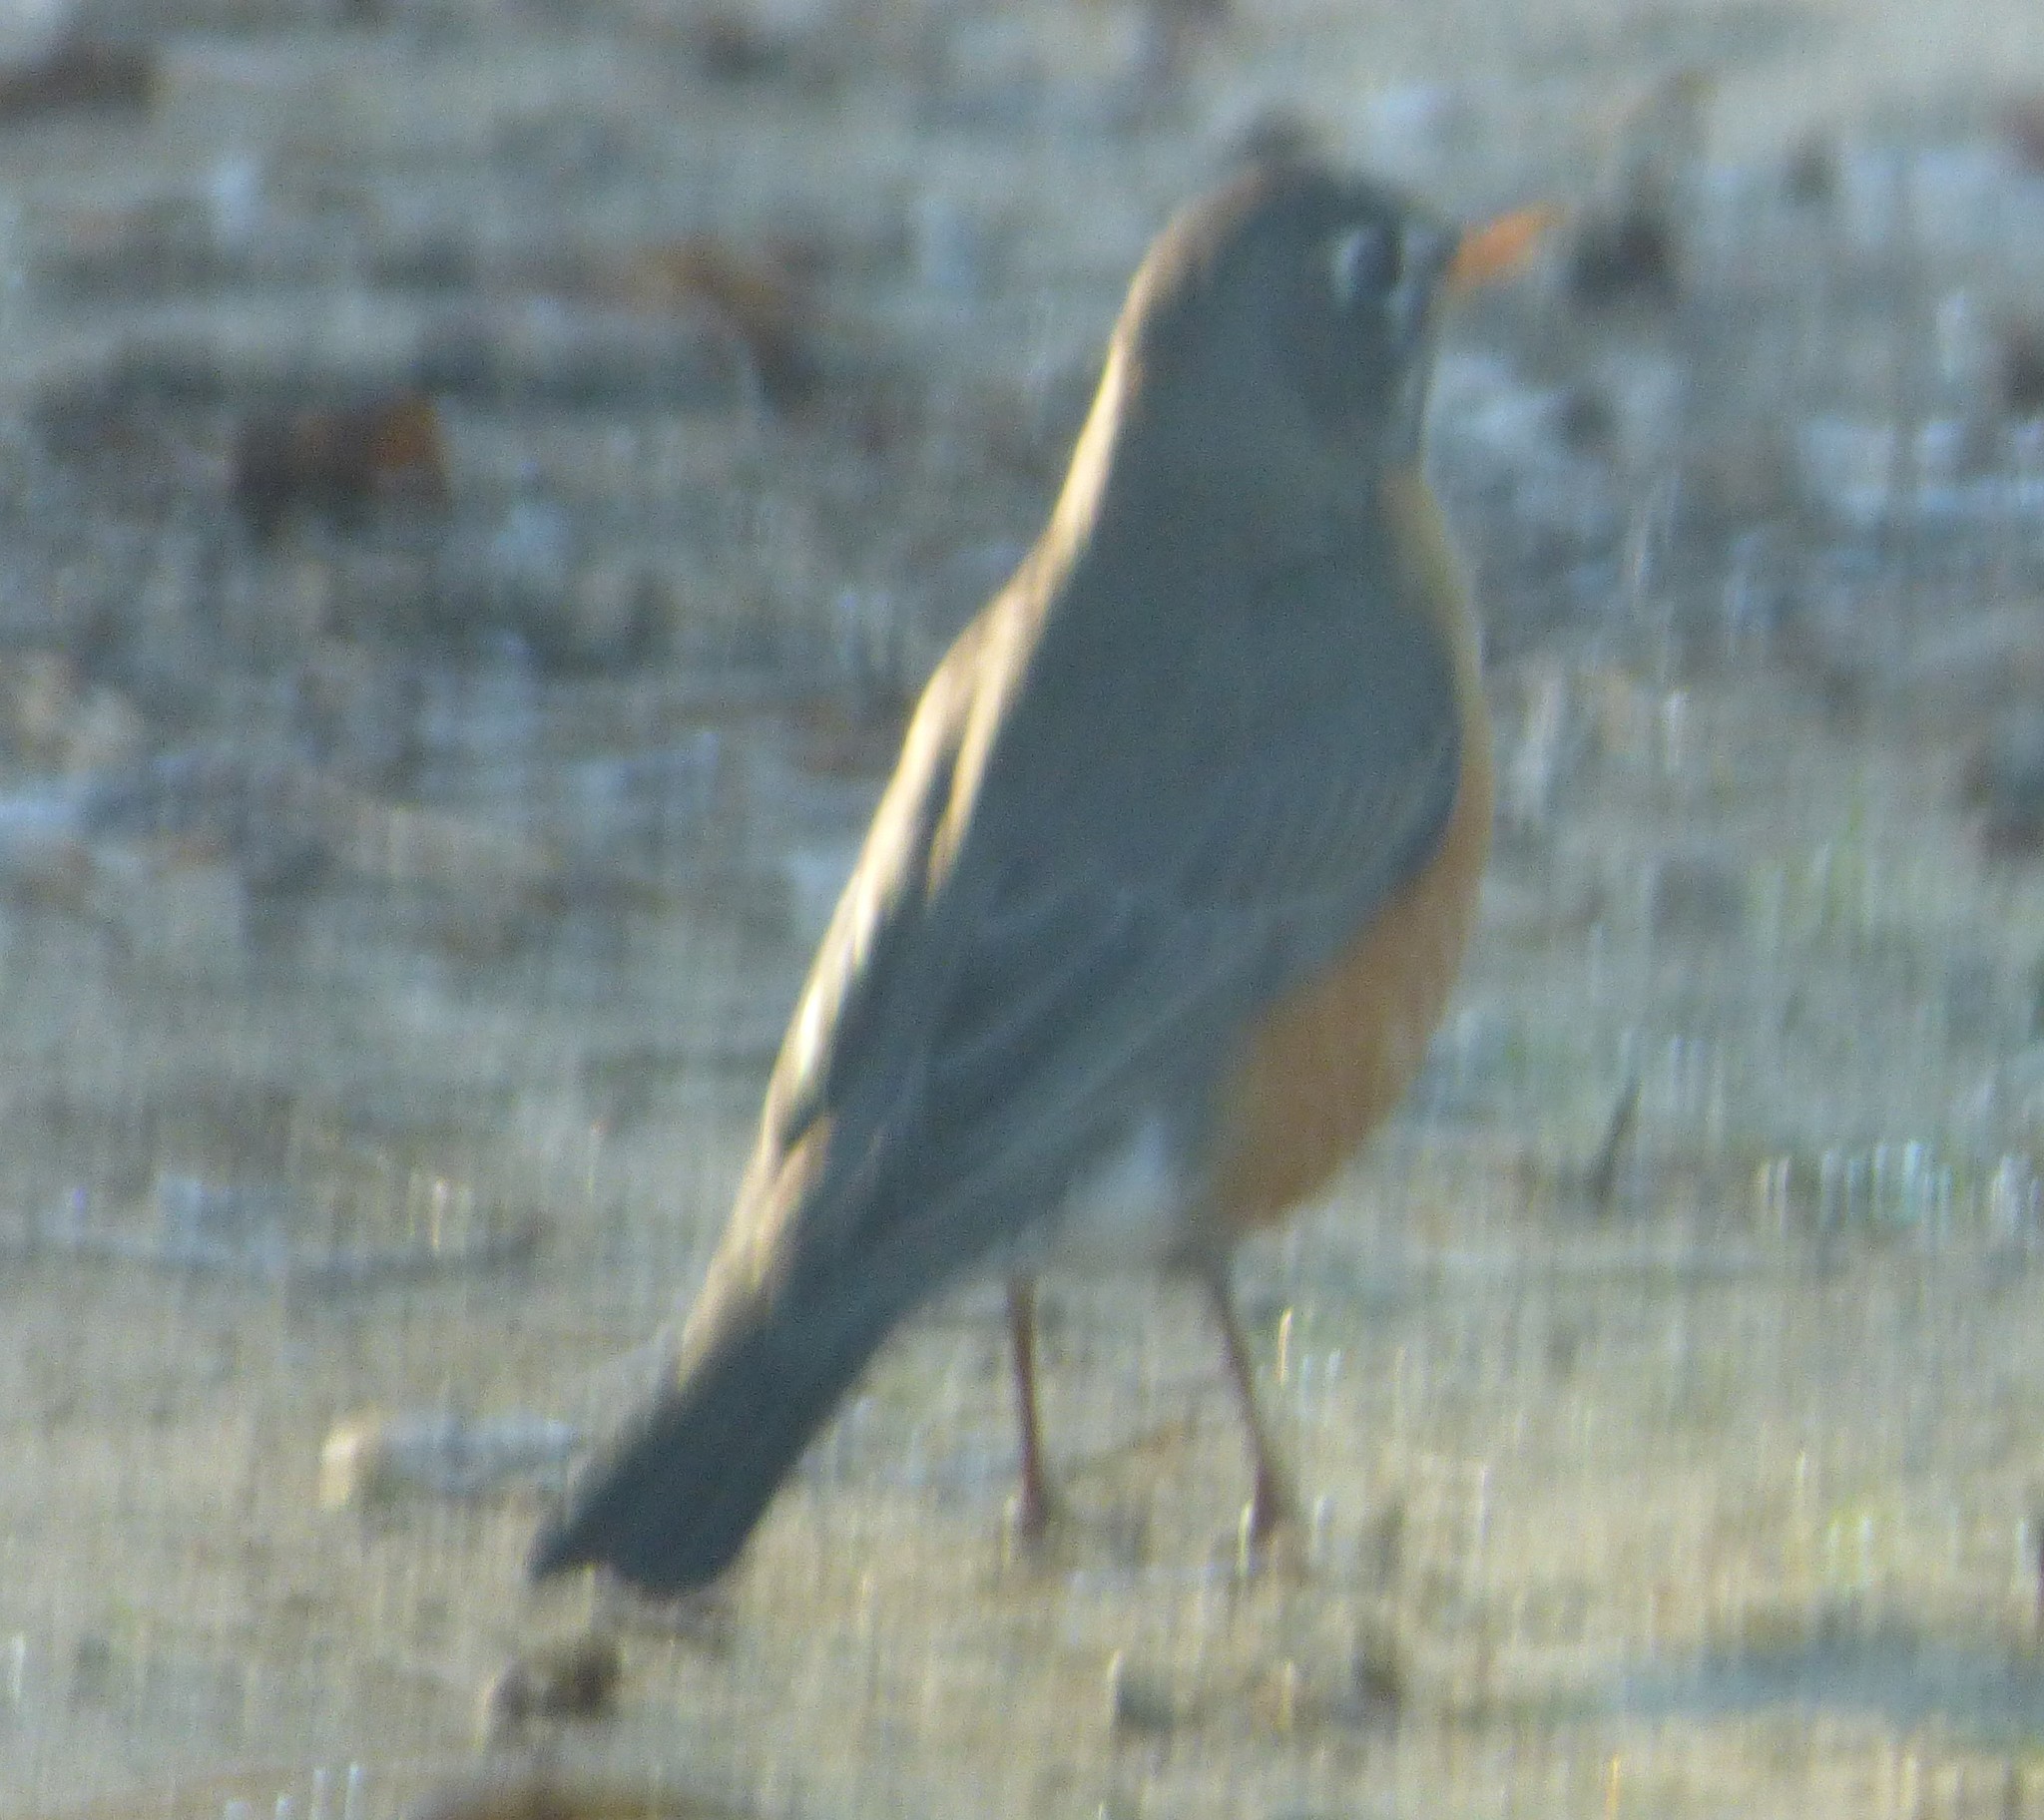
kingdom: Animalia
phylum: Chordata
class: Aves
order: Passeriformes
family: Turdidae
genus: Turdus
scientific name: Turdus migratorius
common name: American robin
